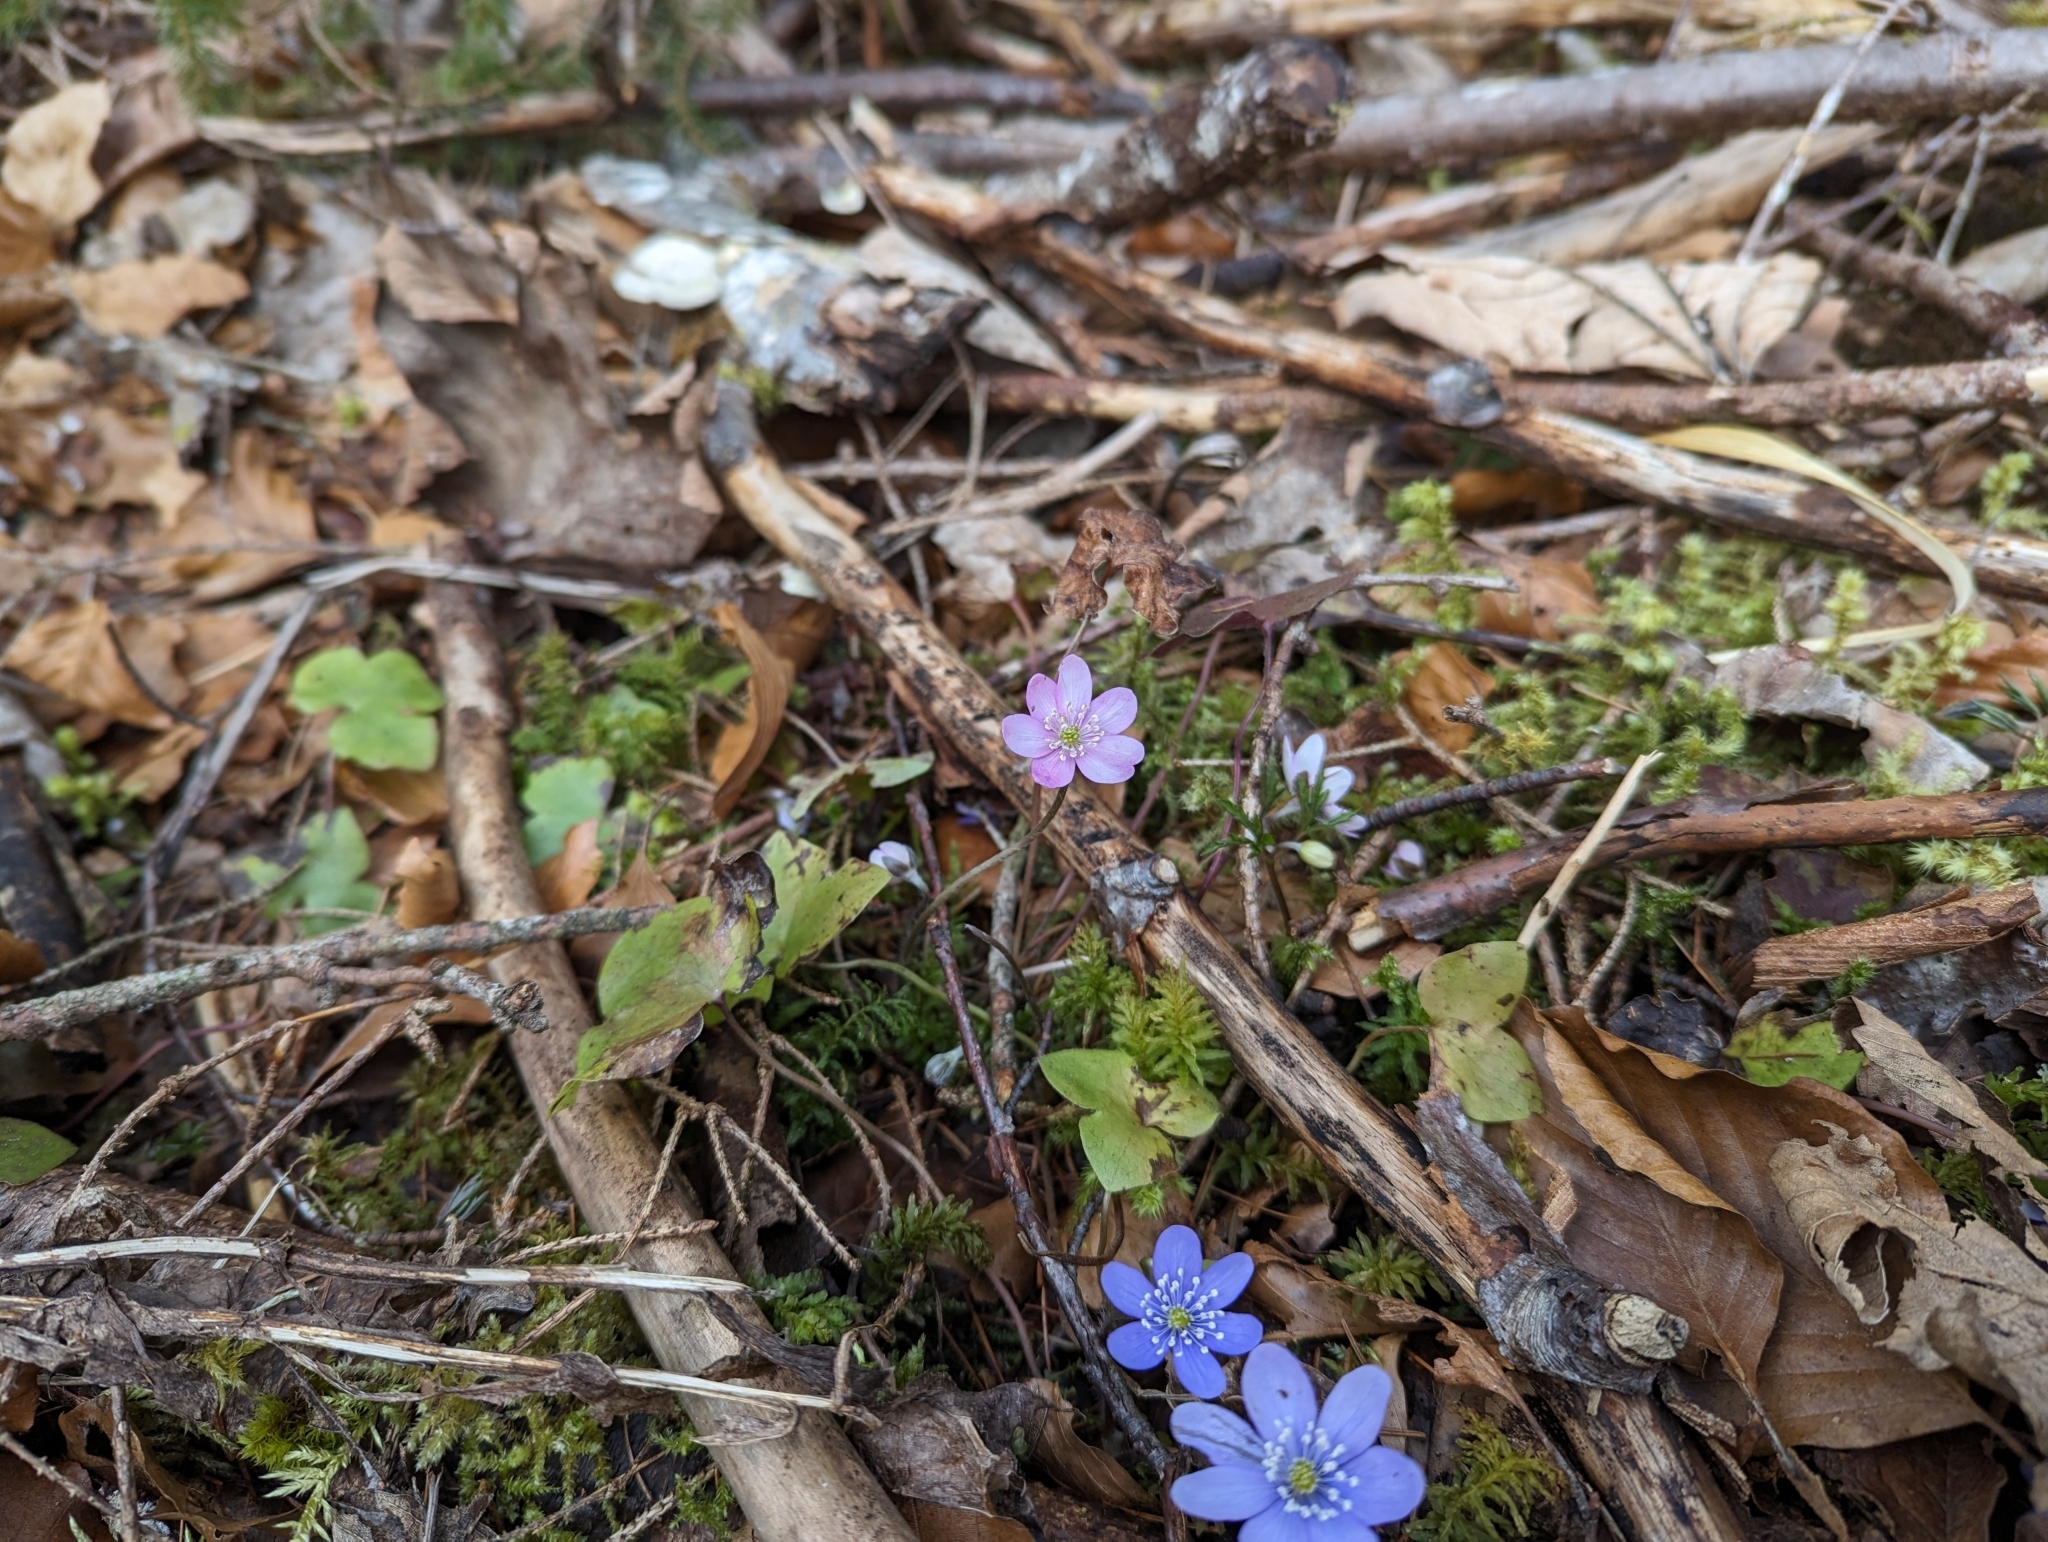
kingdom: Plantae
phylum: Tracheophyta
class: Magnoliopsida
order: Ranunculales
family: Ranunculaceae
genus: Hepatica
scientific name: Hepatica nobilis
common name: Liverleaf
